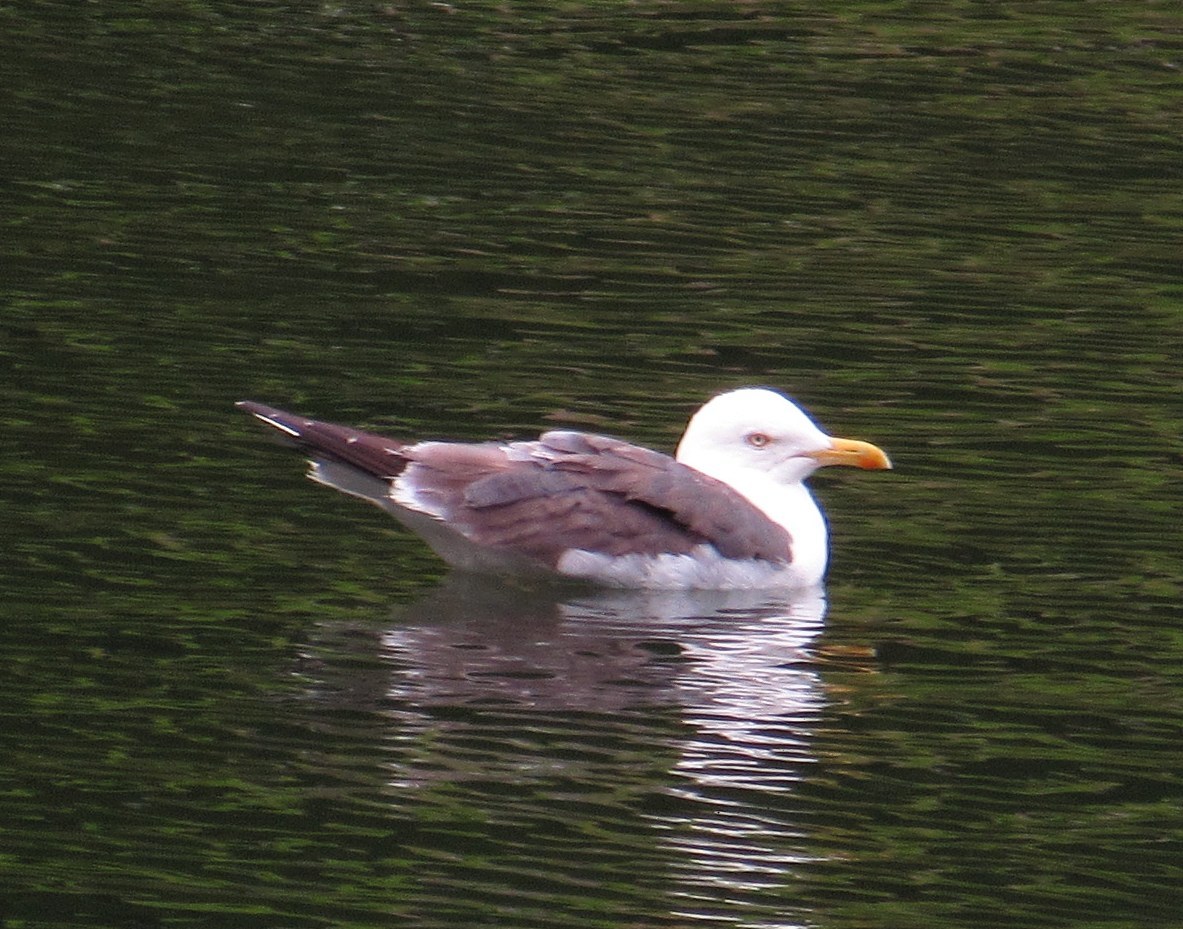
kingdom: Animalia
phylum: Chordata
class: Aves
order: Charadriiformes
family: Laridae
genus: Larus
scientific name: Larus fuscus
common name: Lesser black-backed gull
